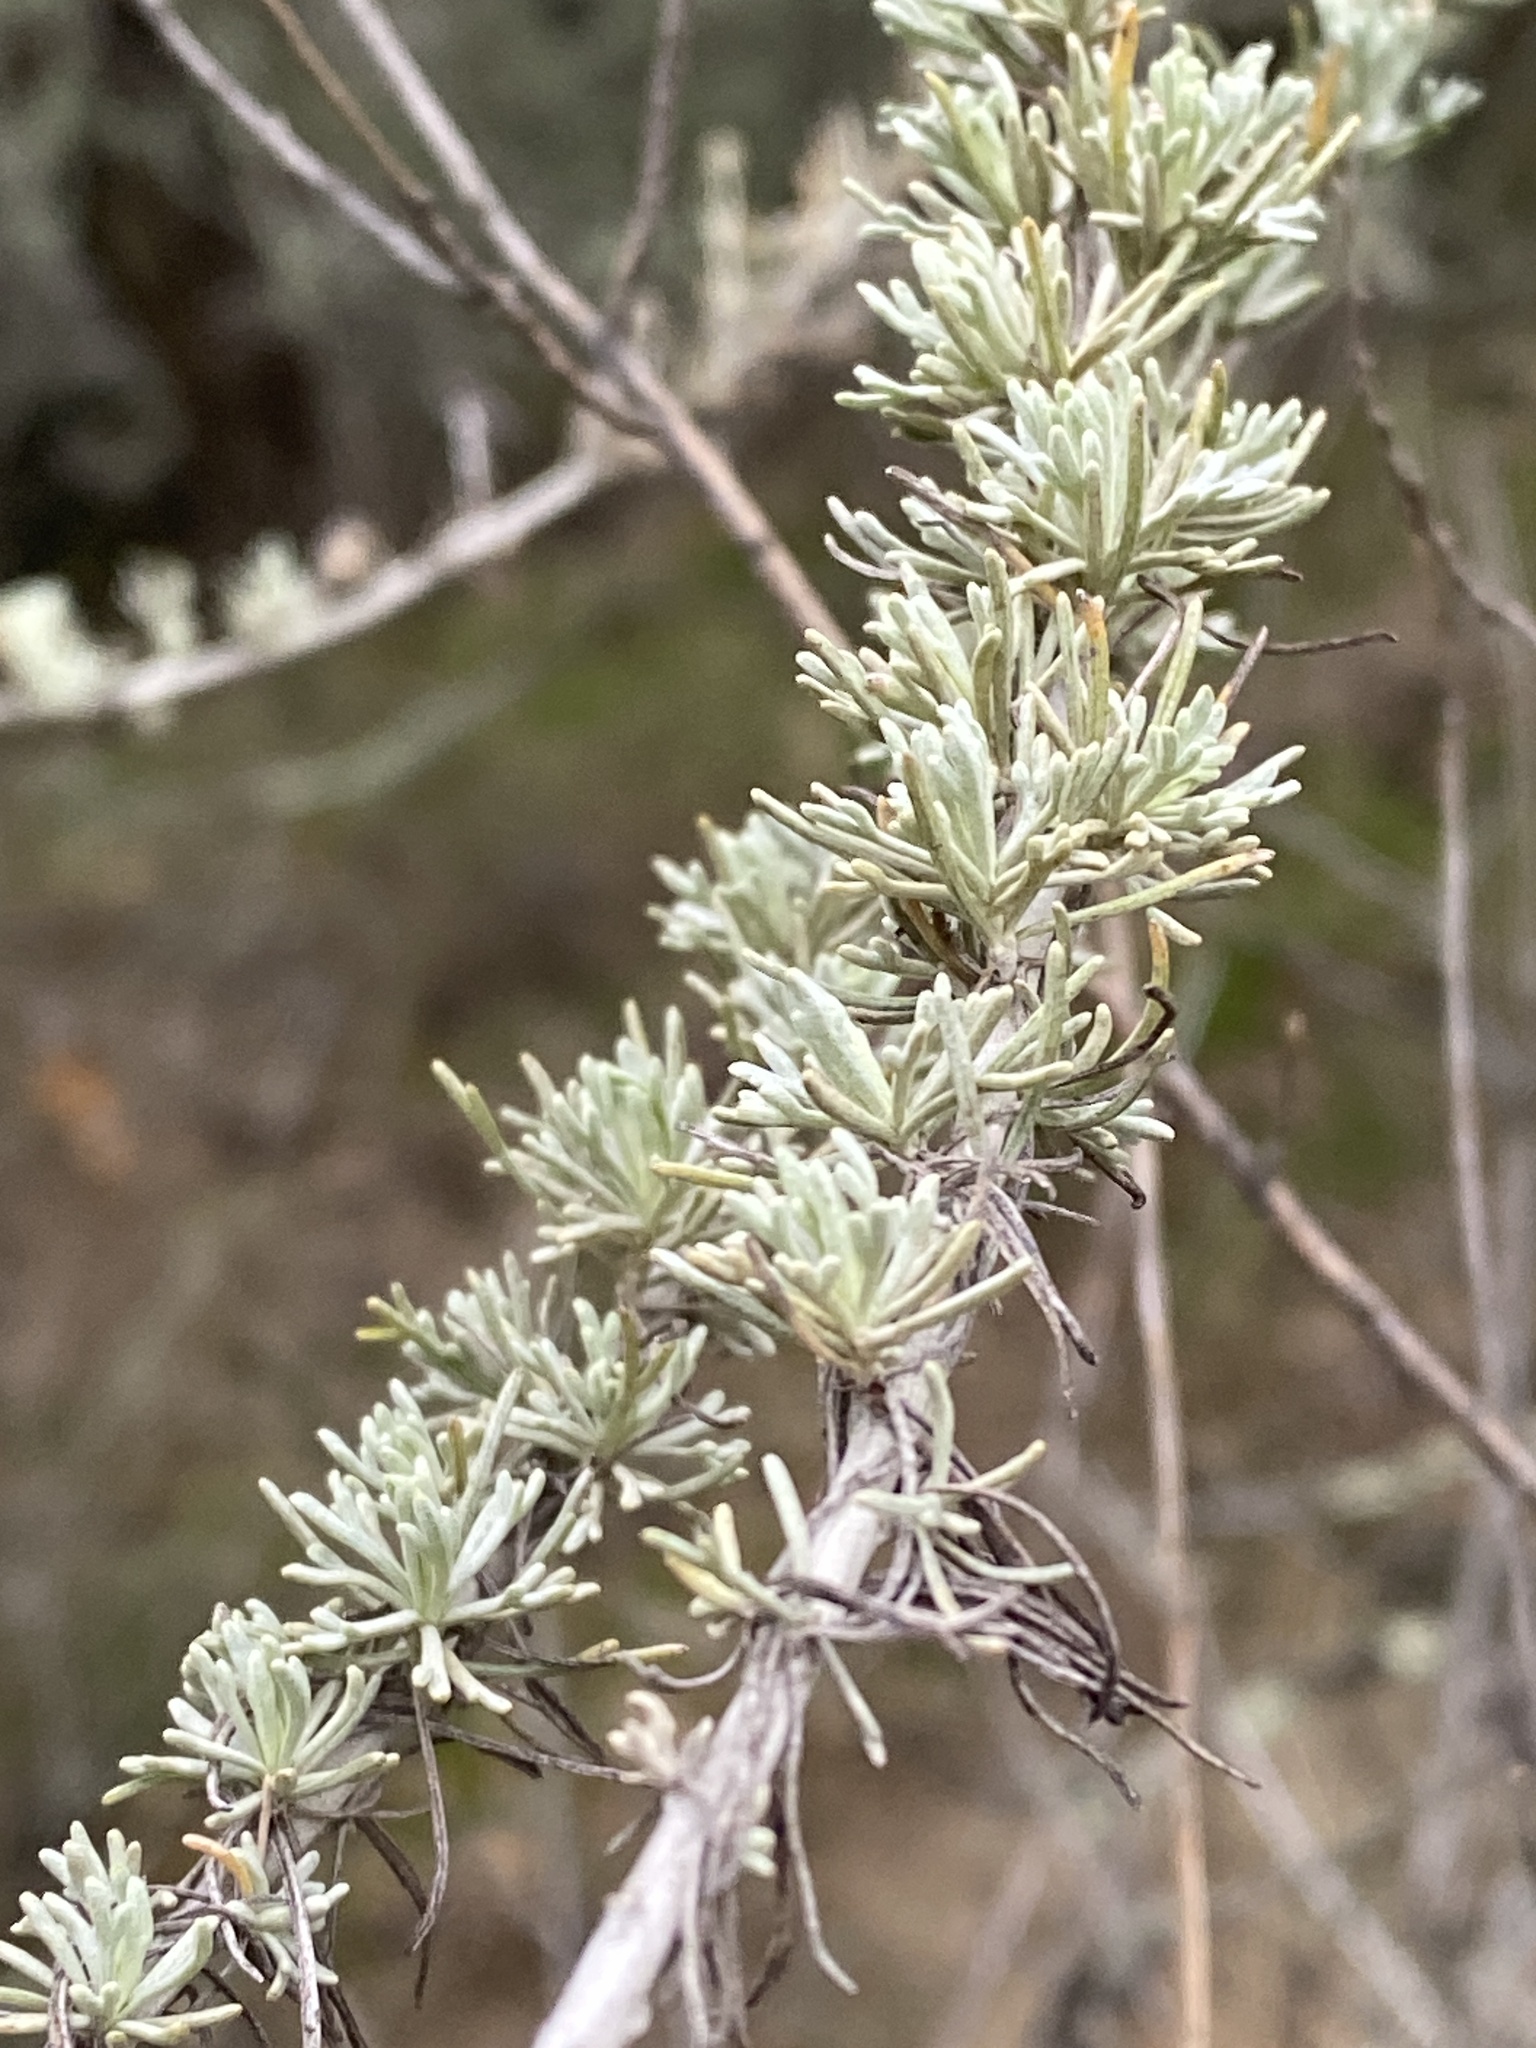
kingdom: Plantae
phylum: Tracheophyta
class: Magnoliopsida
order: Asterales
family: Asteraceae
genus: Artemisia
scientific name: Artemisia californica
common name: California sagebrush
